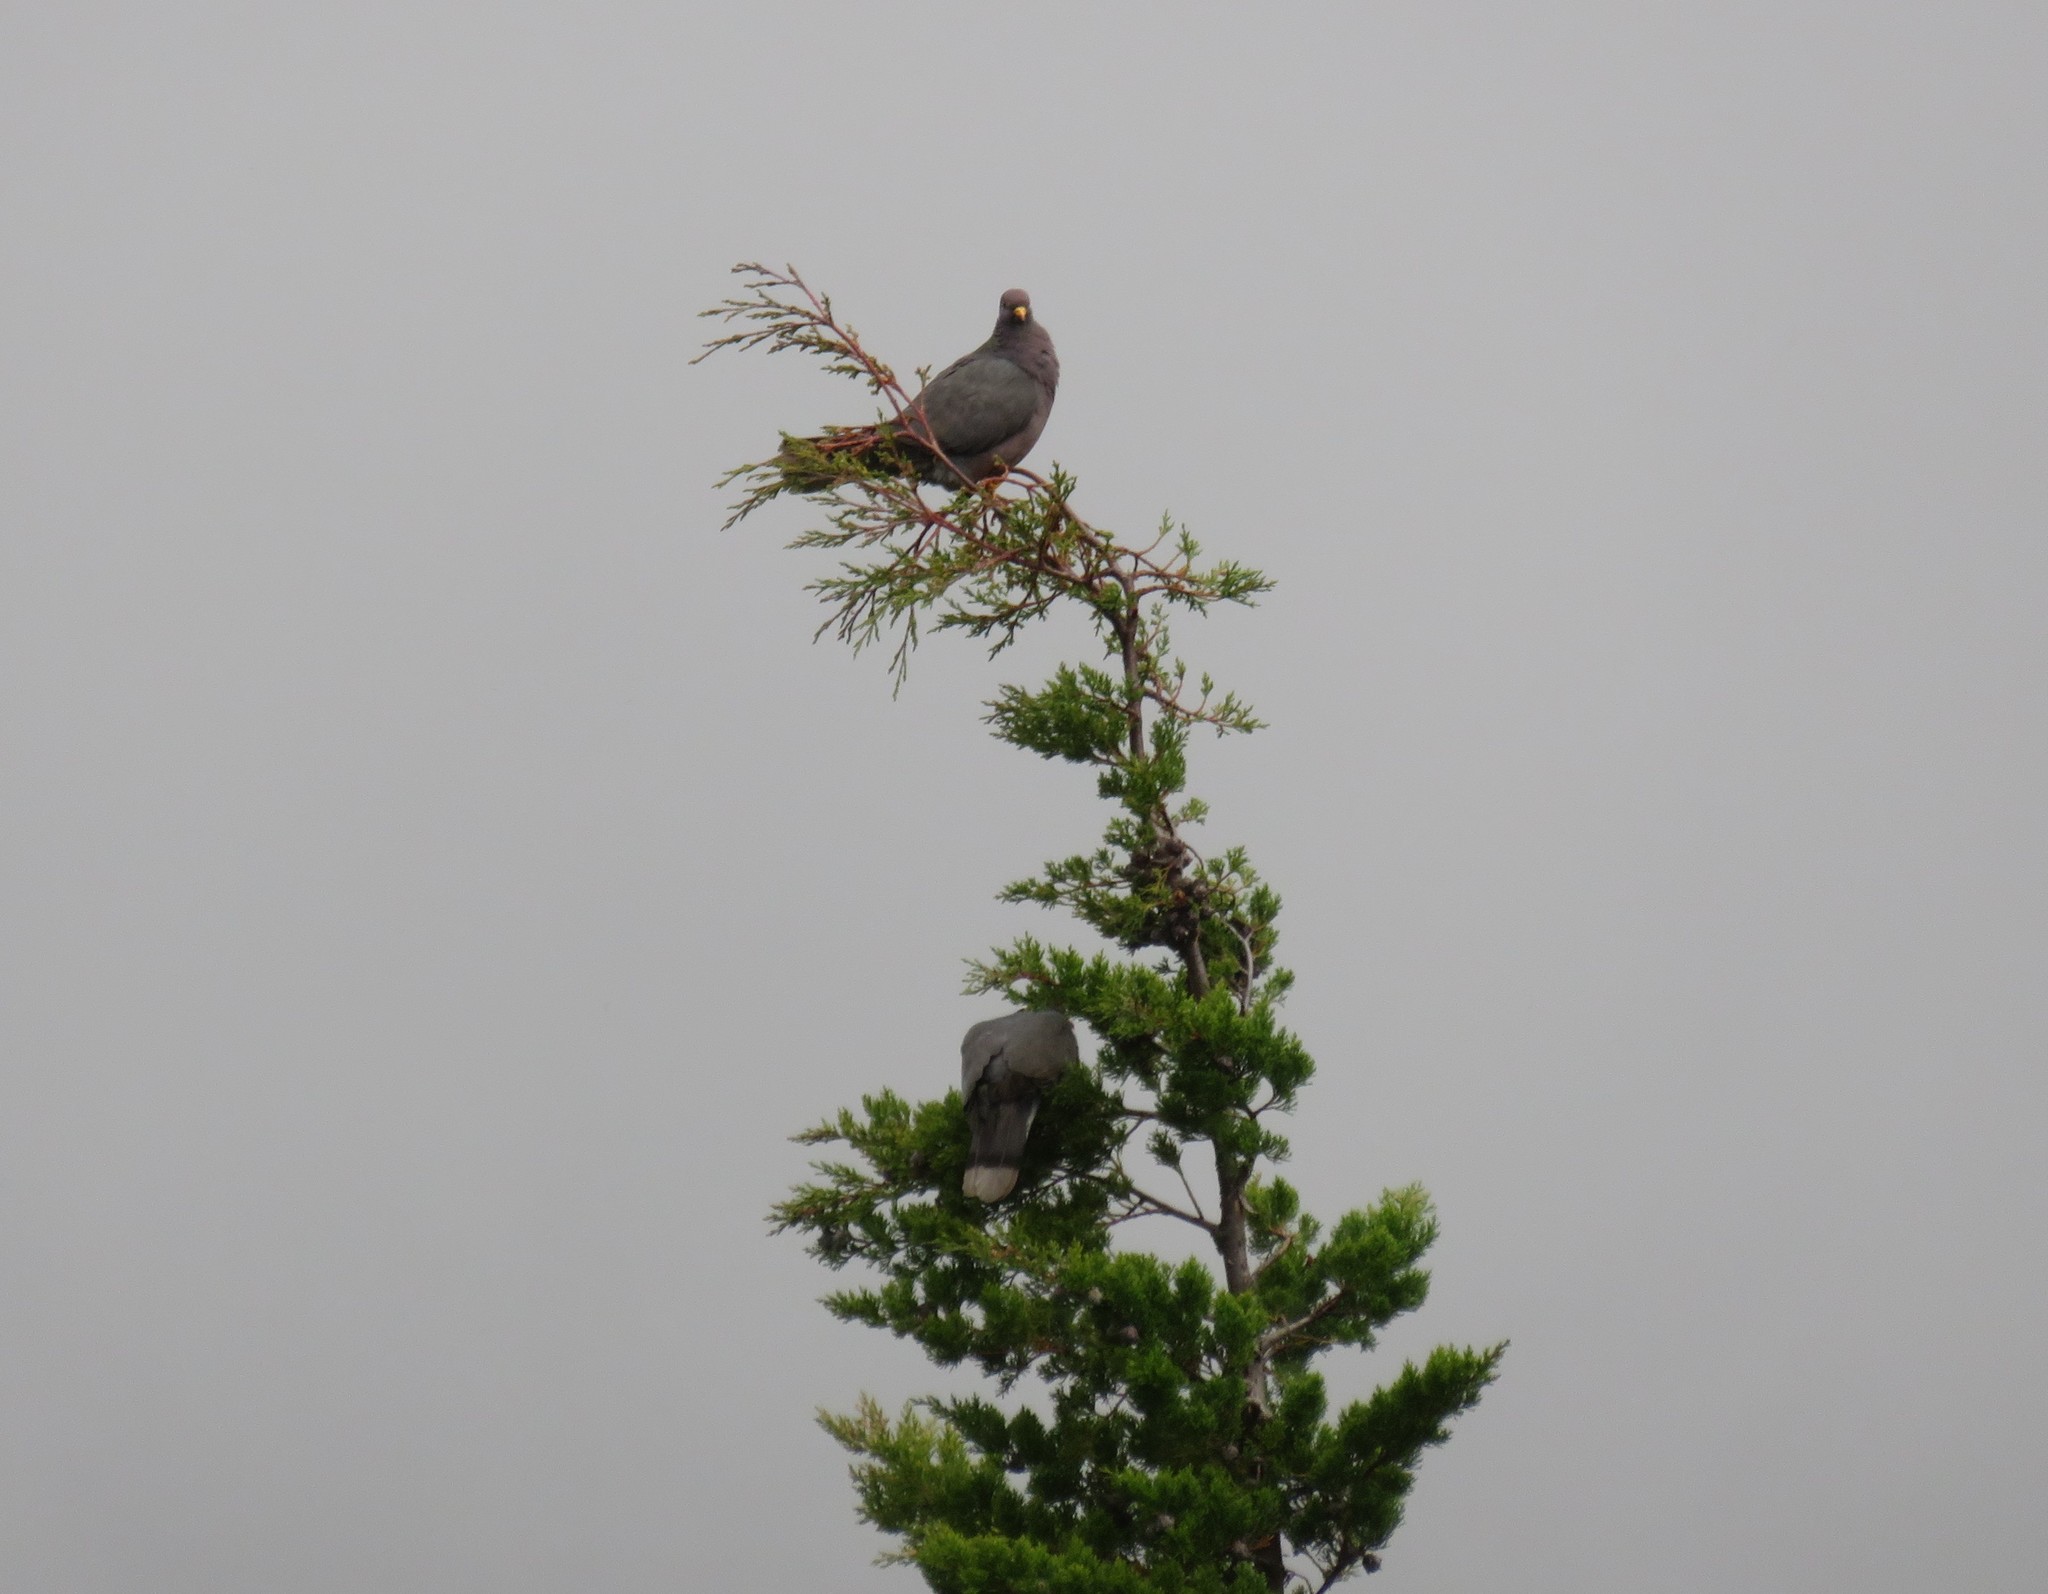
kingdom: Animalia
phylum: Chordata
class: Aves
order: Columbiformes
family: Columbidae
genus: Patagioenas
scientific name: Patagioenas fasciata
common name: Band-tailed pigeon
